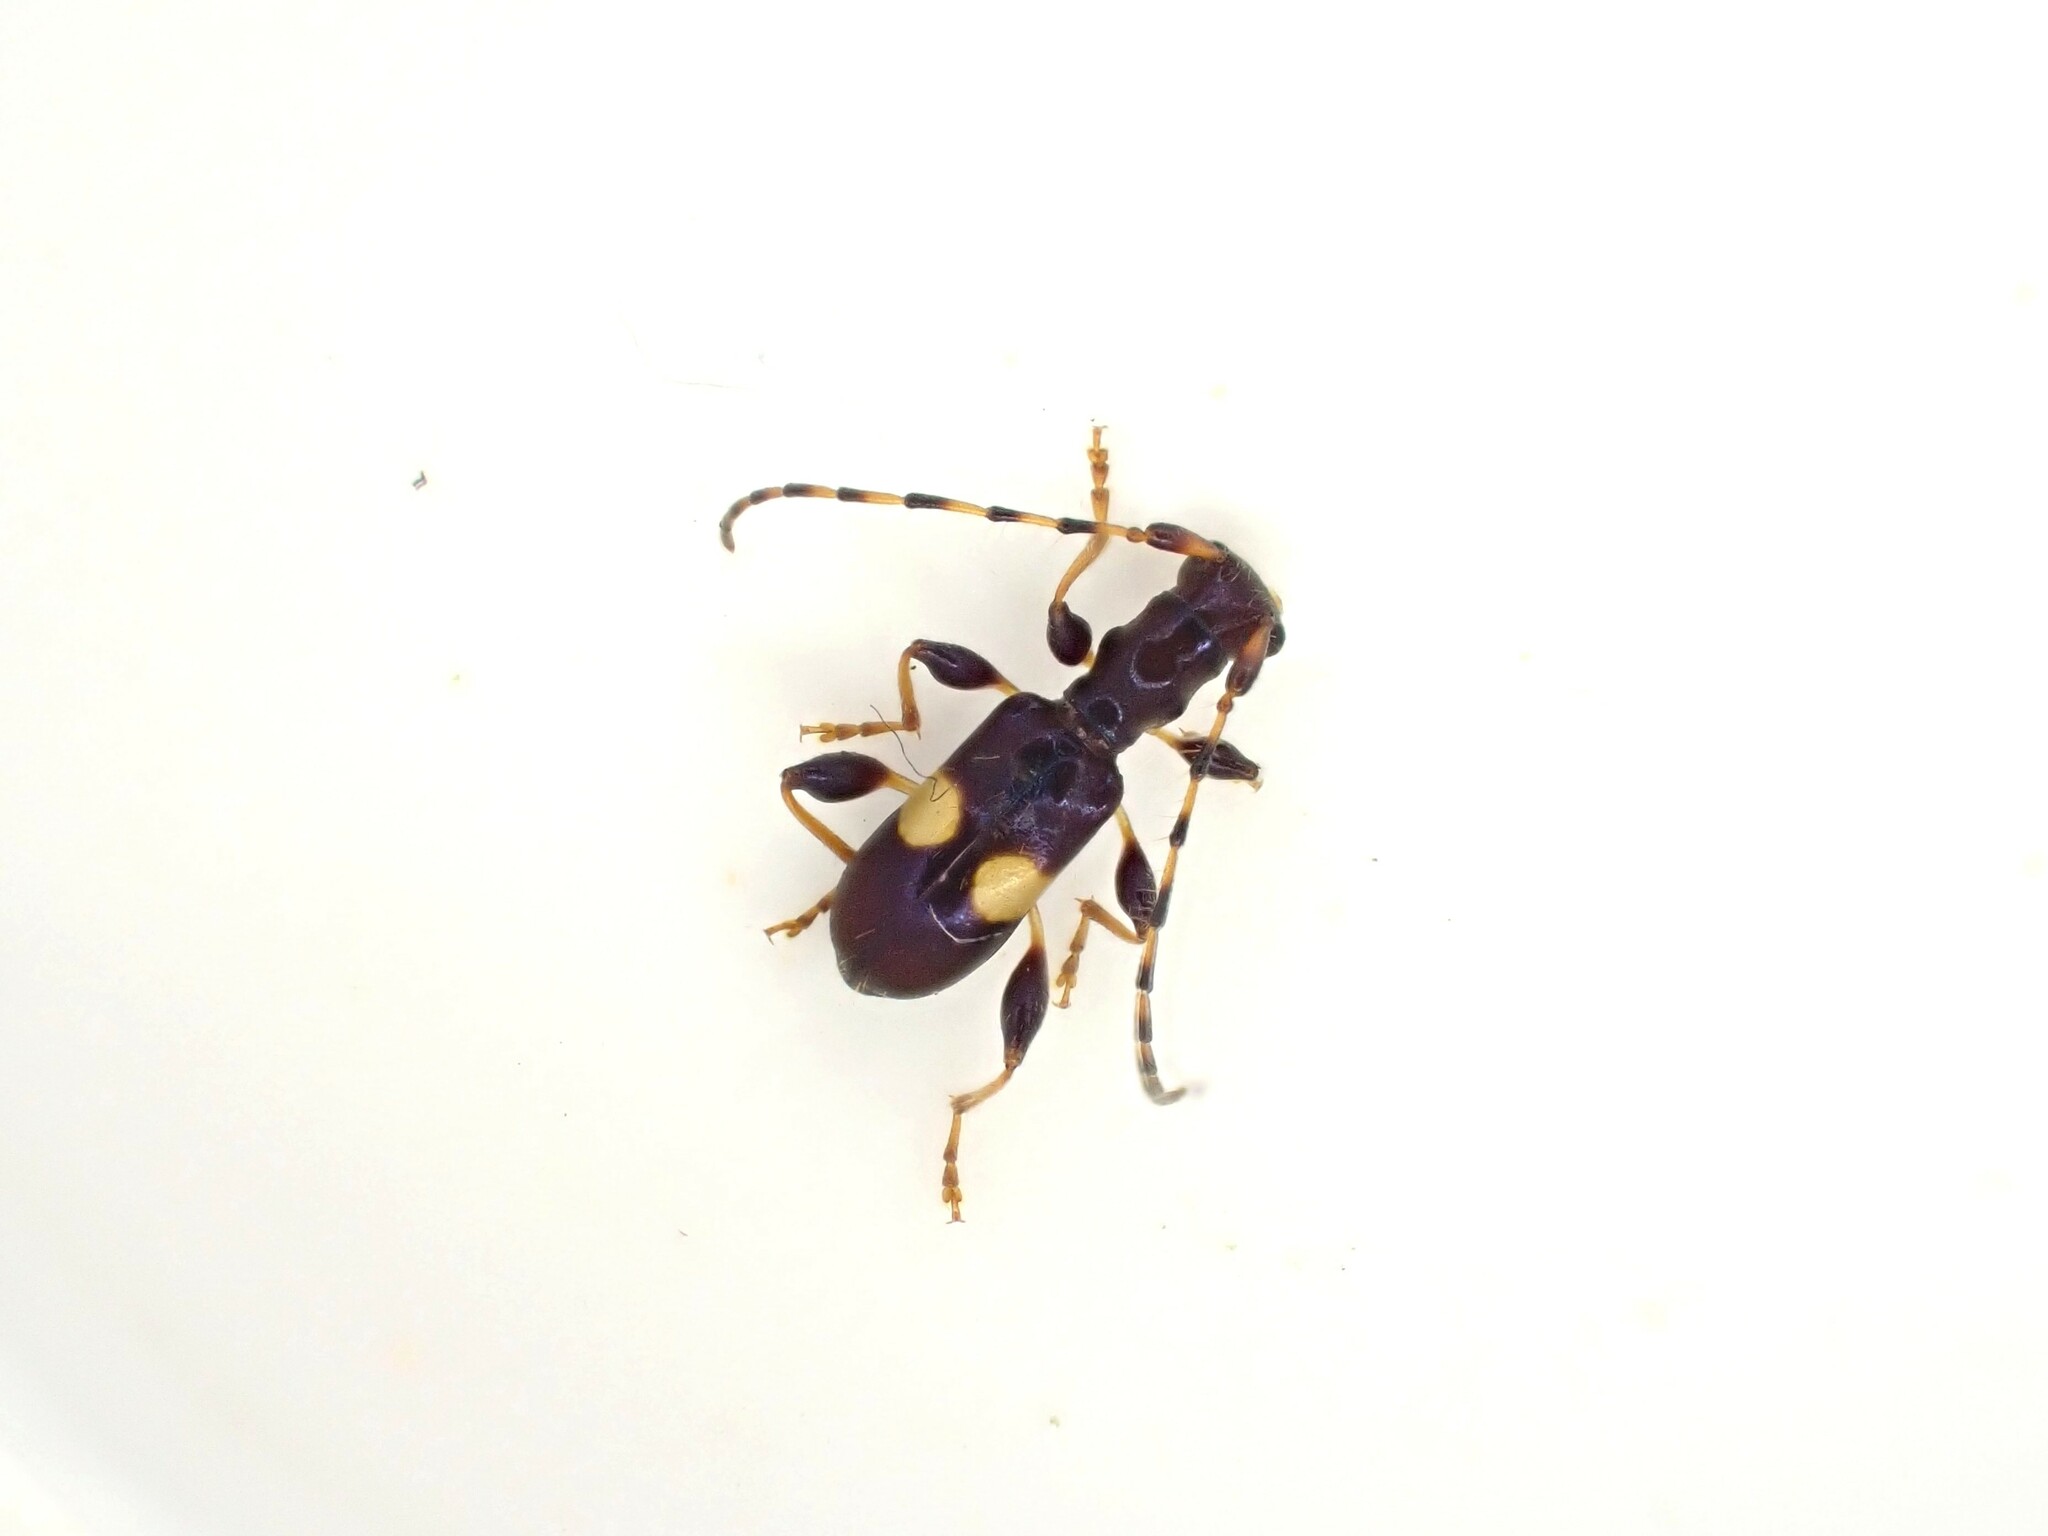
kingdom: Animalia
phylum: Arthropoda
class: Insecta
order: Coleoptera
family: Cerambycidae
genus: Zorion
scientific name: Zorion guttigerum
